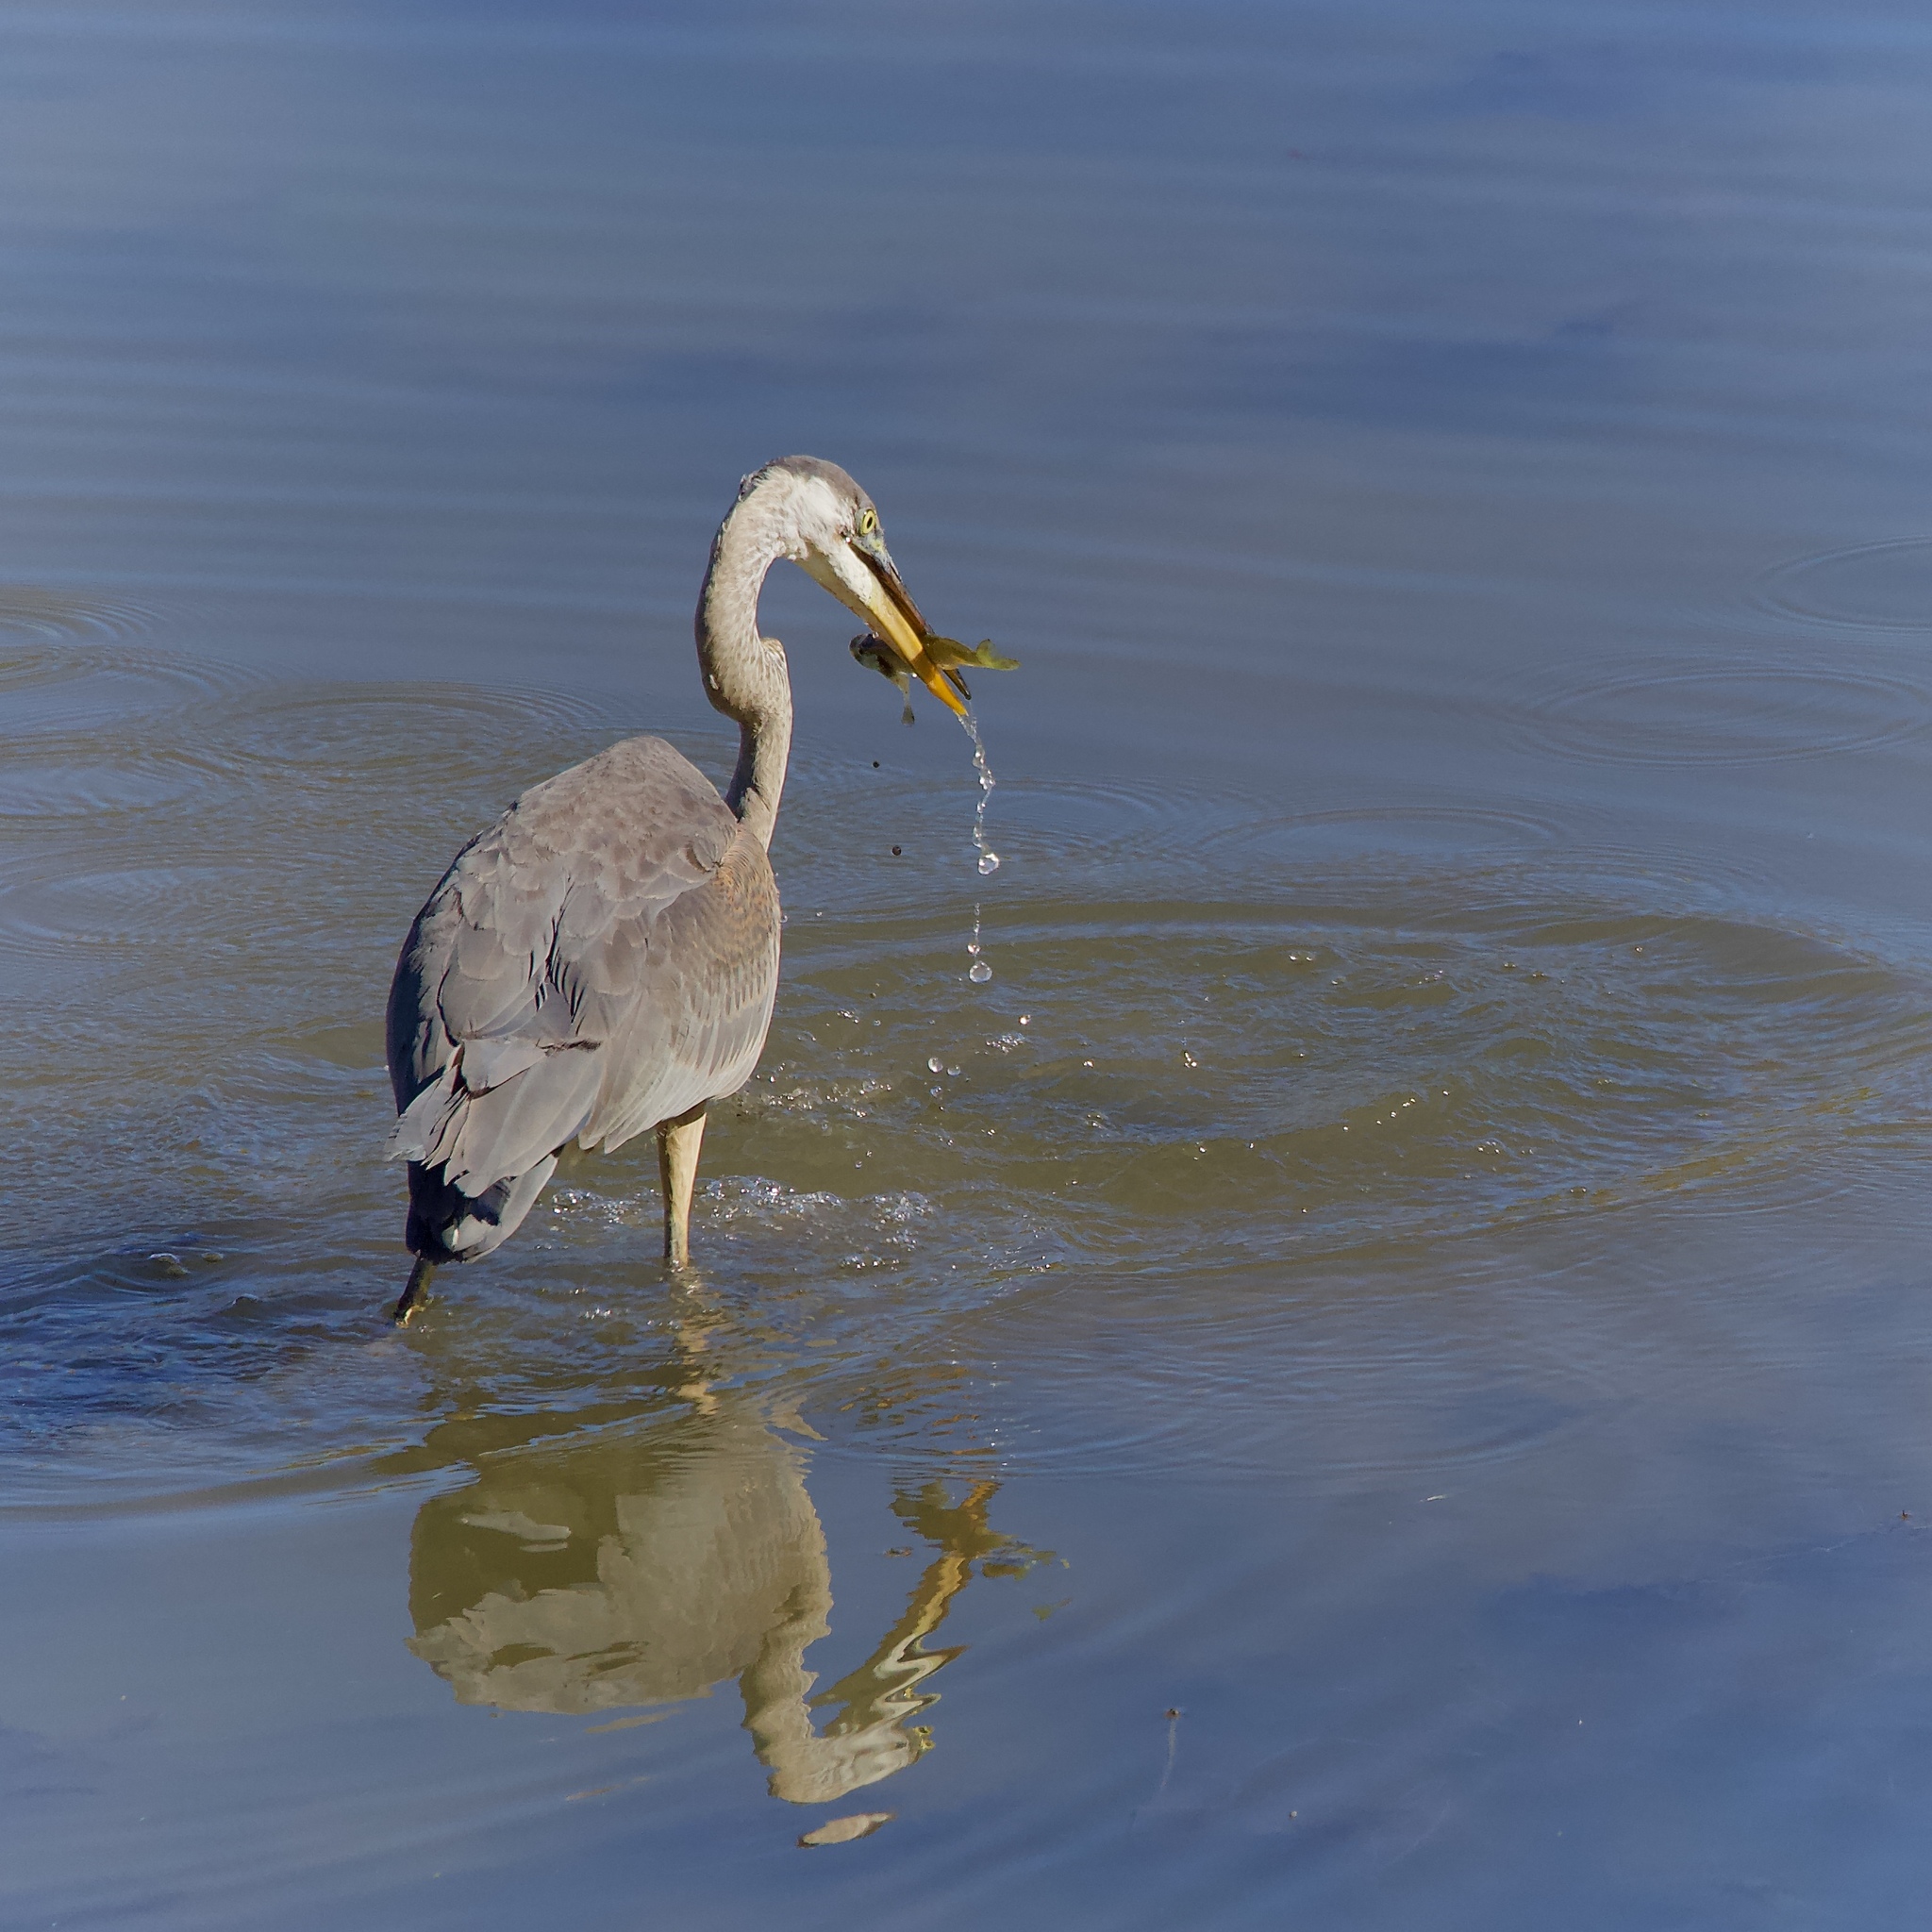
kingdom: Animalia
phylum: Chordata
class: Aves
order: Pelecaniformes
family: Ardeidae
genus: Ardea
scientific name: Ardea herodias
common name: Great blue heron
